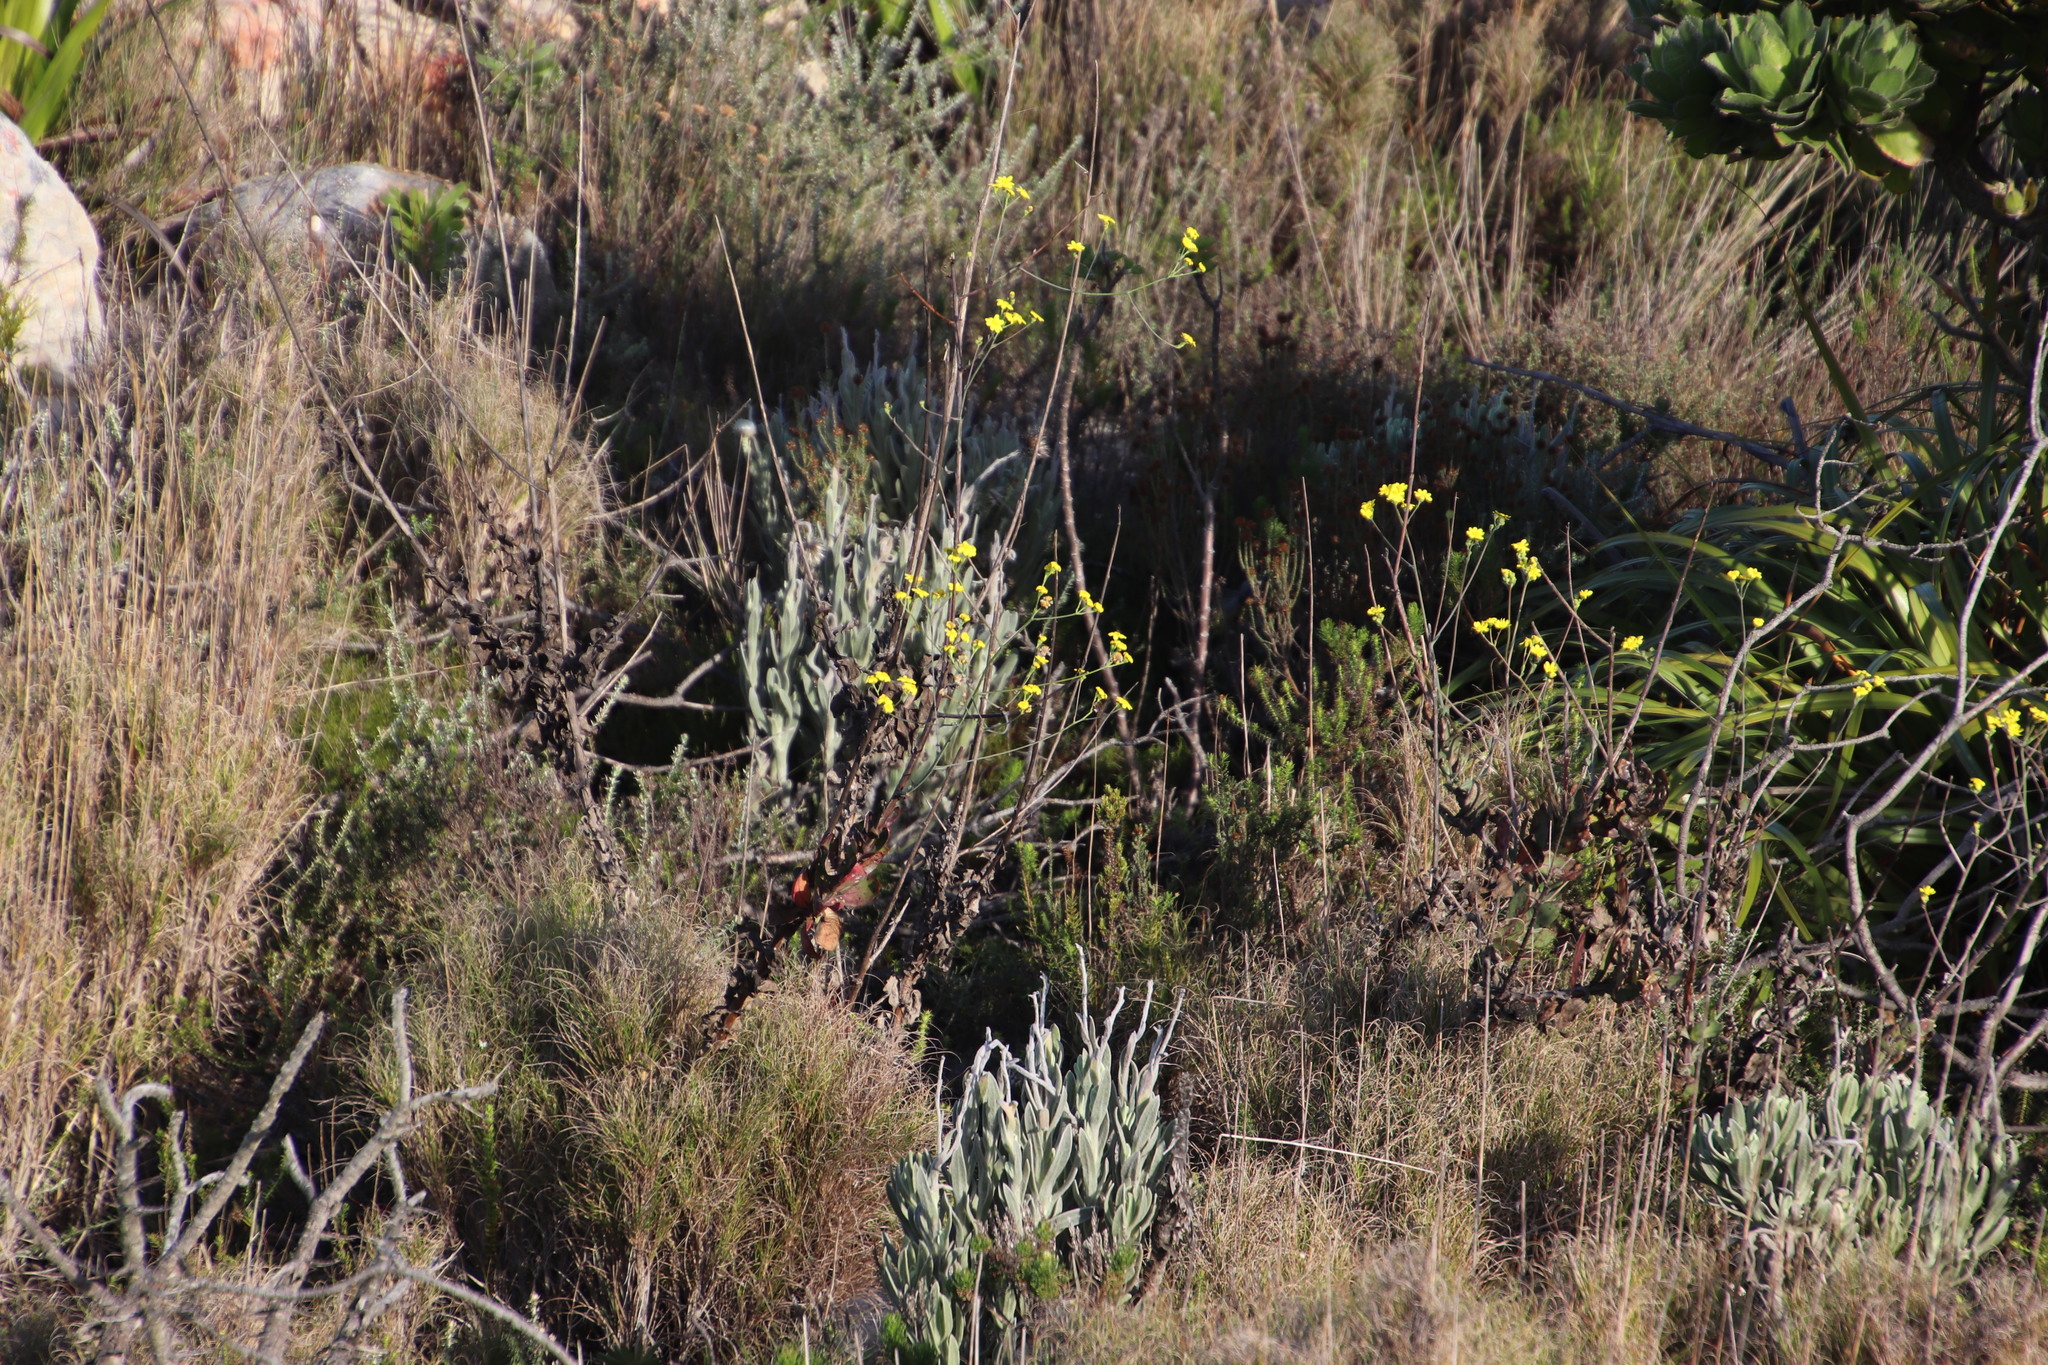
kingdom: Plantae
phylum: Tracheophyta
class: Magnoliopsida
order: Asterales
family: Asteraceae
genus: Othonna
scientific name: Othonna quinquedentata
